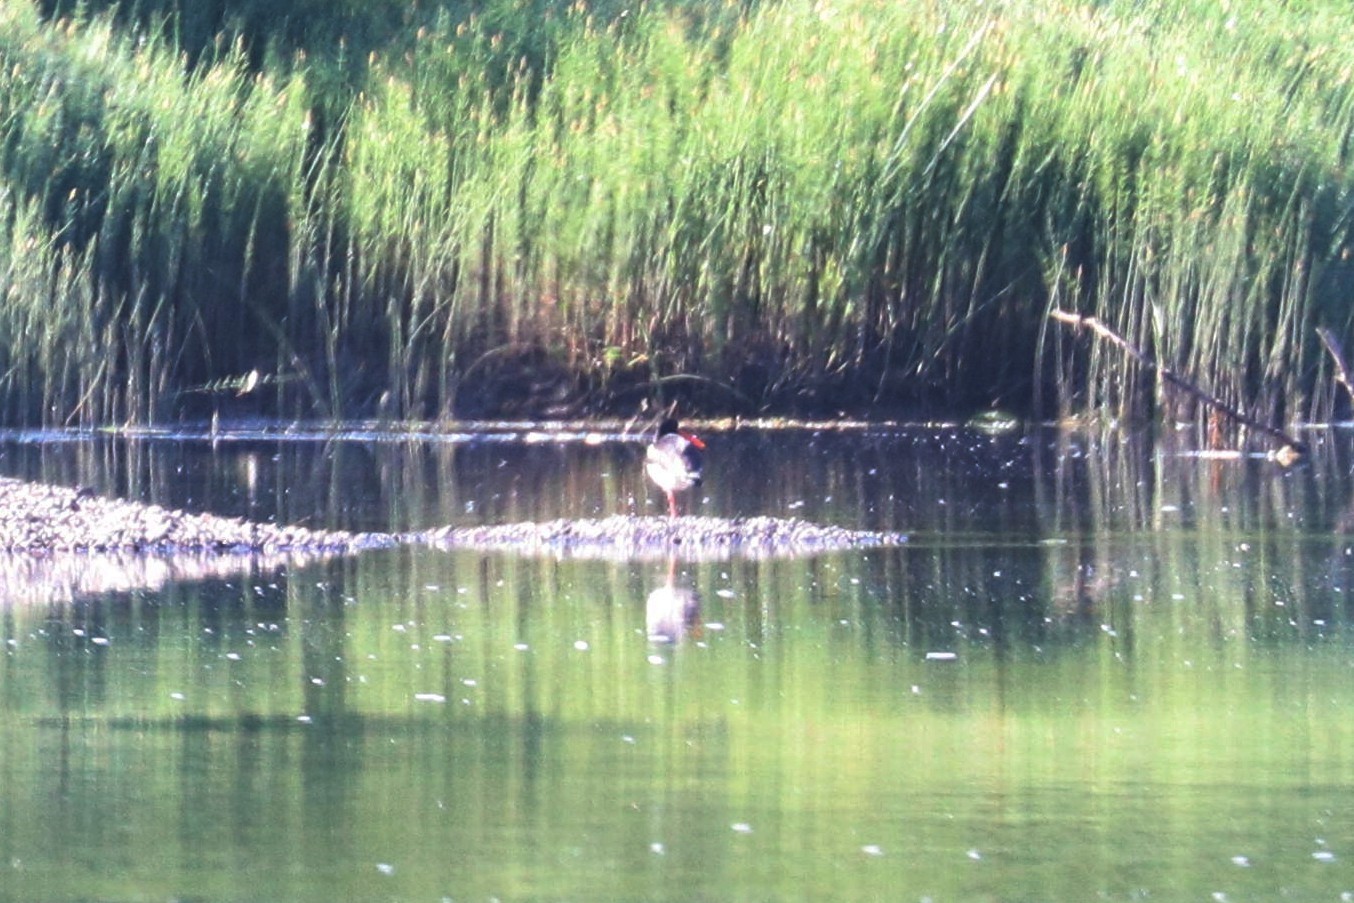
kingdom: Animalia
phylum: Chordata
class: Aves
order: Charadriiformes
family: Haematopodidae
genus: Haematopus
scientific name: Haematopus ostralegus
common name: Eurasian oystercatcher
